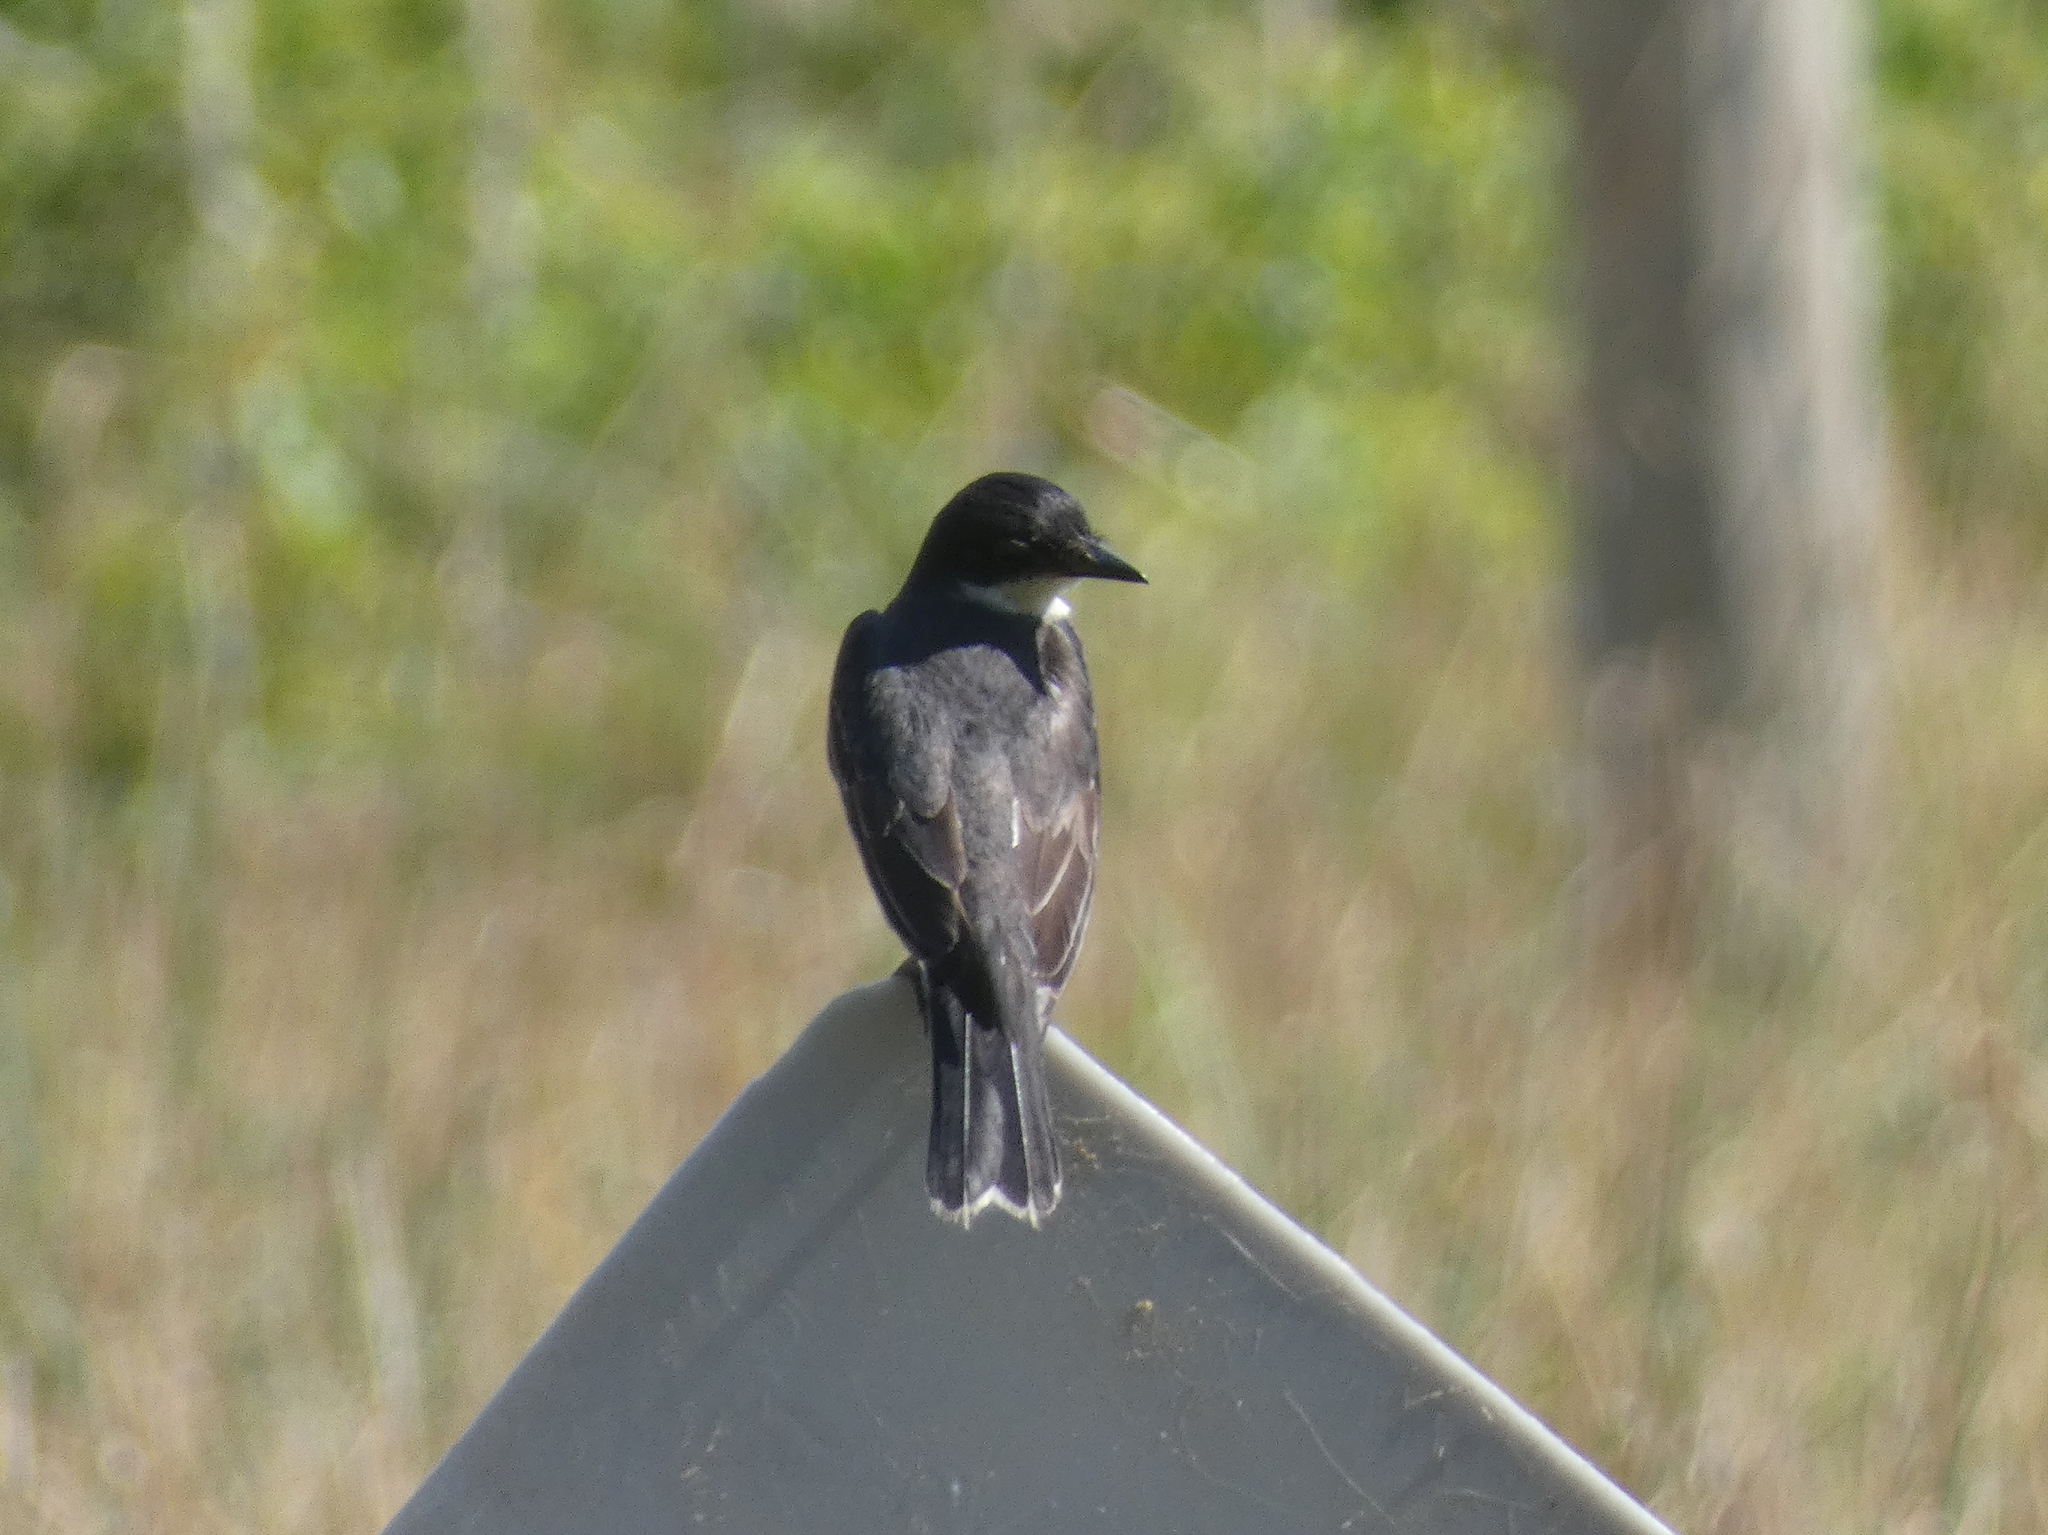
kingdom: Animalia
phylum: Chordata
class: Aves
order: Passeriformes
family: Tyrannidae
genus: Tyrannus
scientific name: Tyrannus tyrannus
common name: Eastern kingbird
